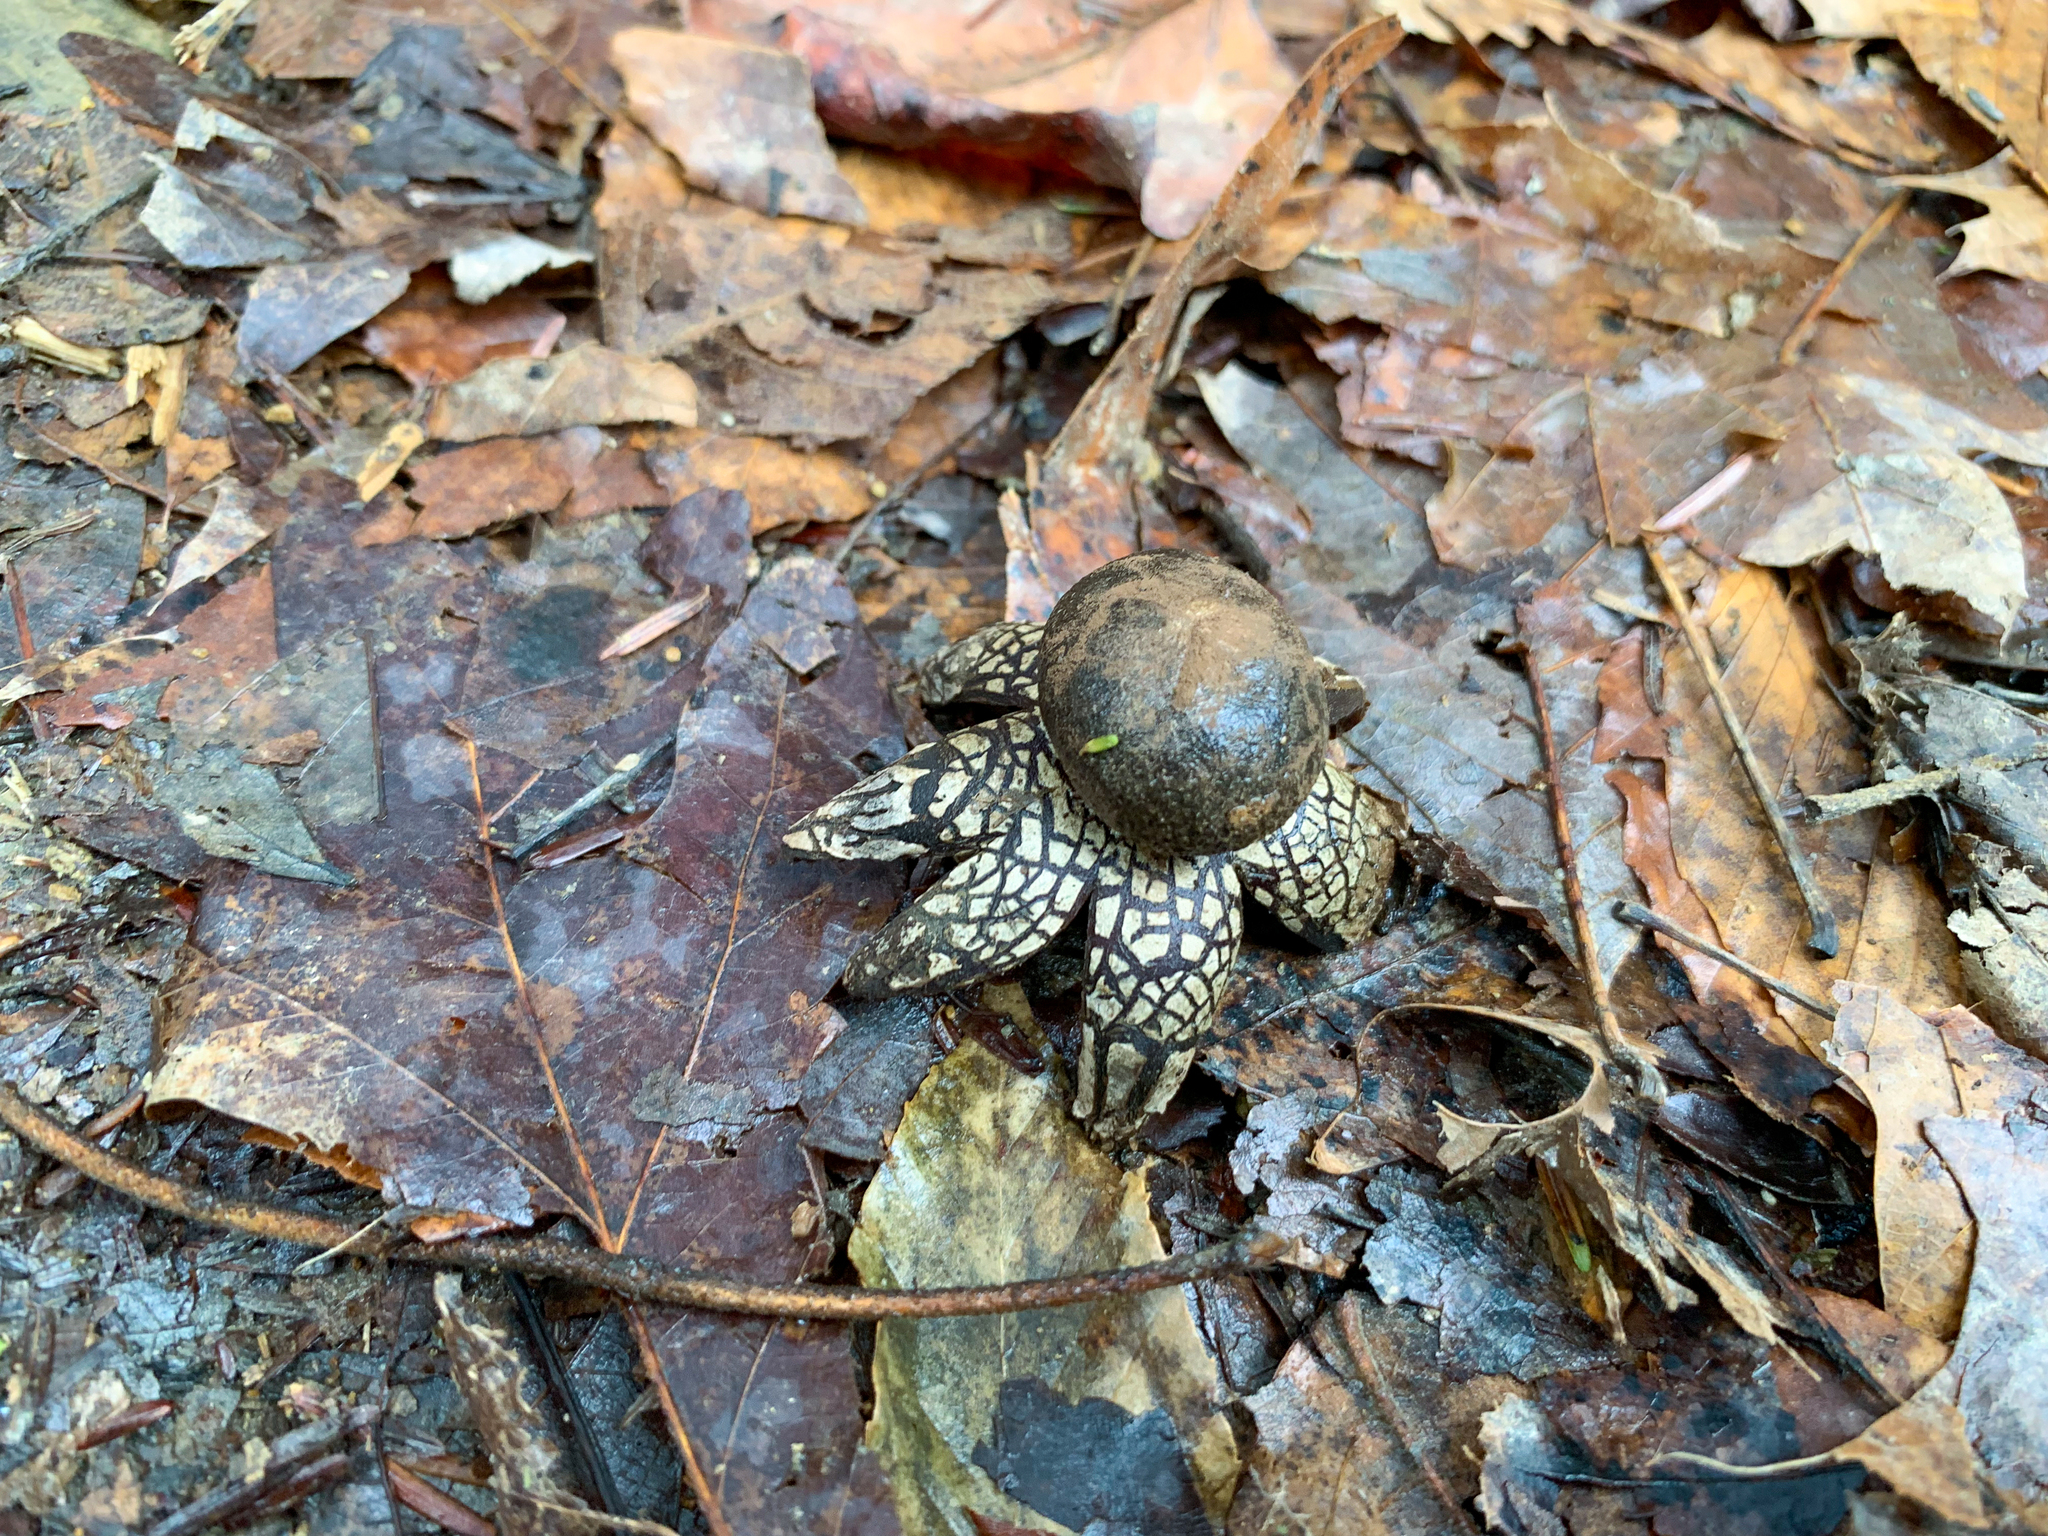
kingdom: Fungi
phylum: Basidiomycota
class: Agaricomycetes
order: Boletales
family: Diplocystidiaceae
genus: Astraeus
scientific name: Astraeus smithii
